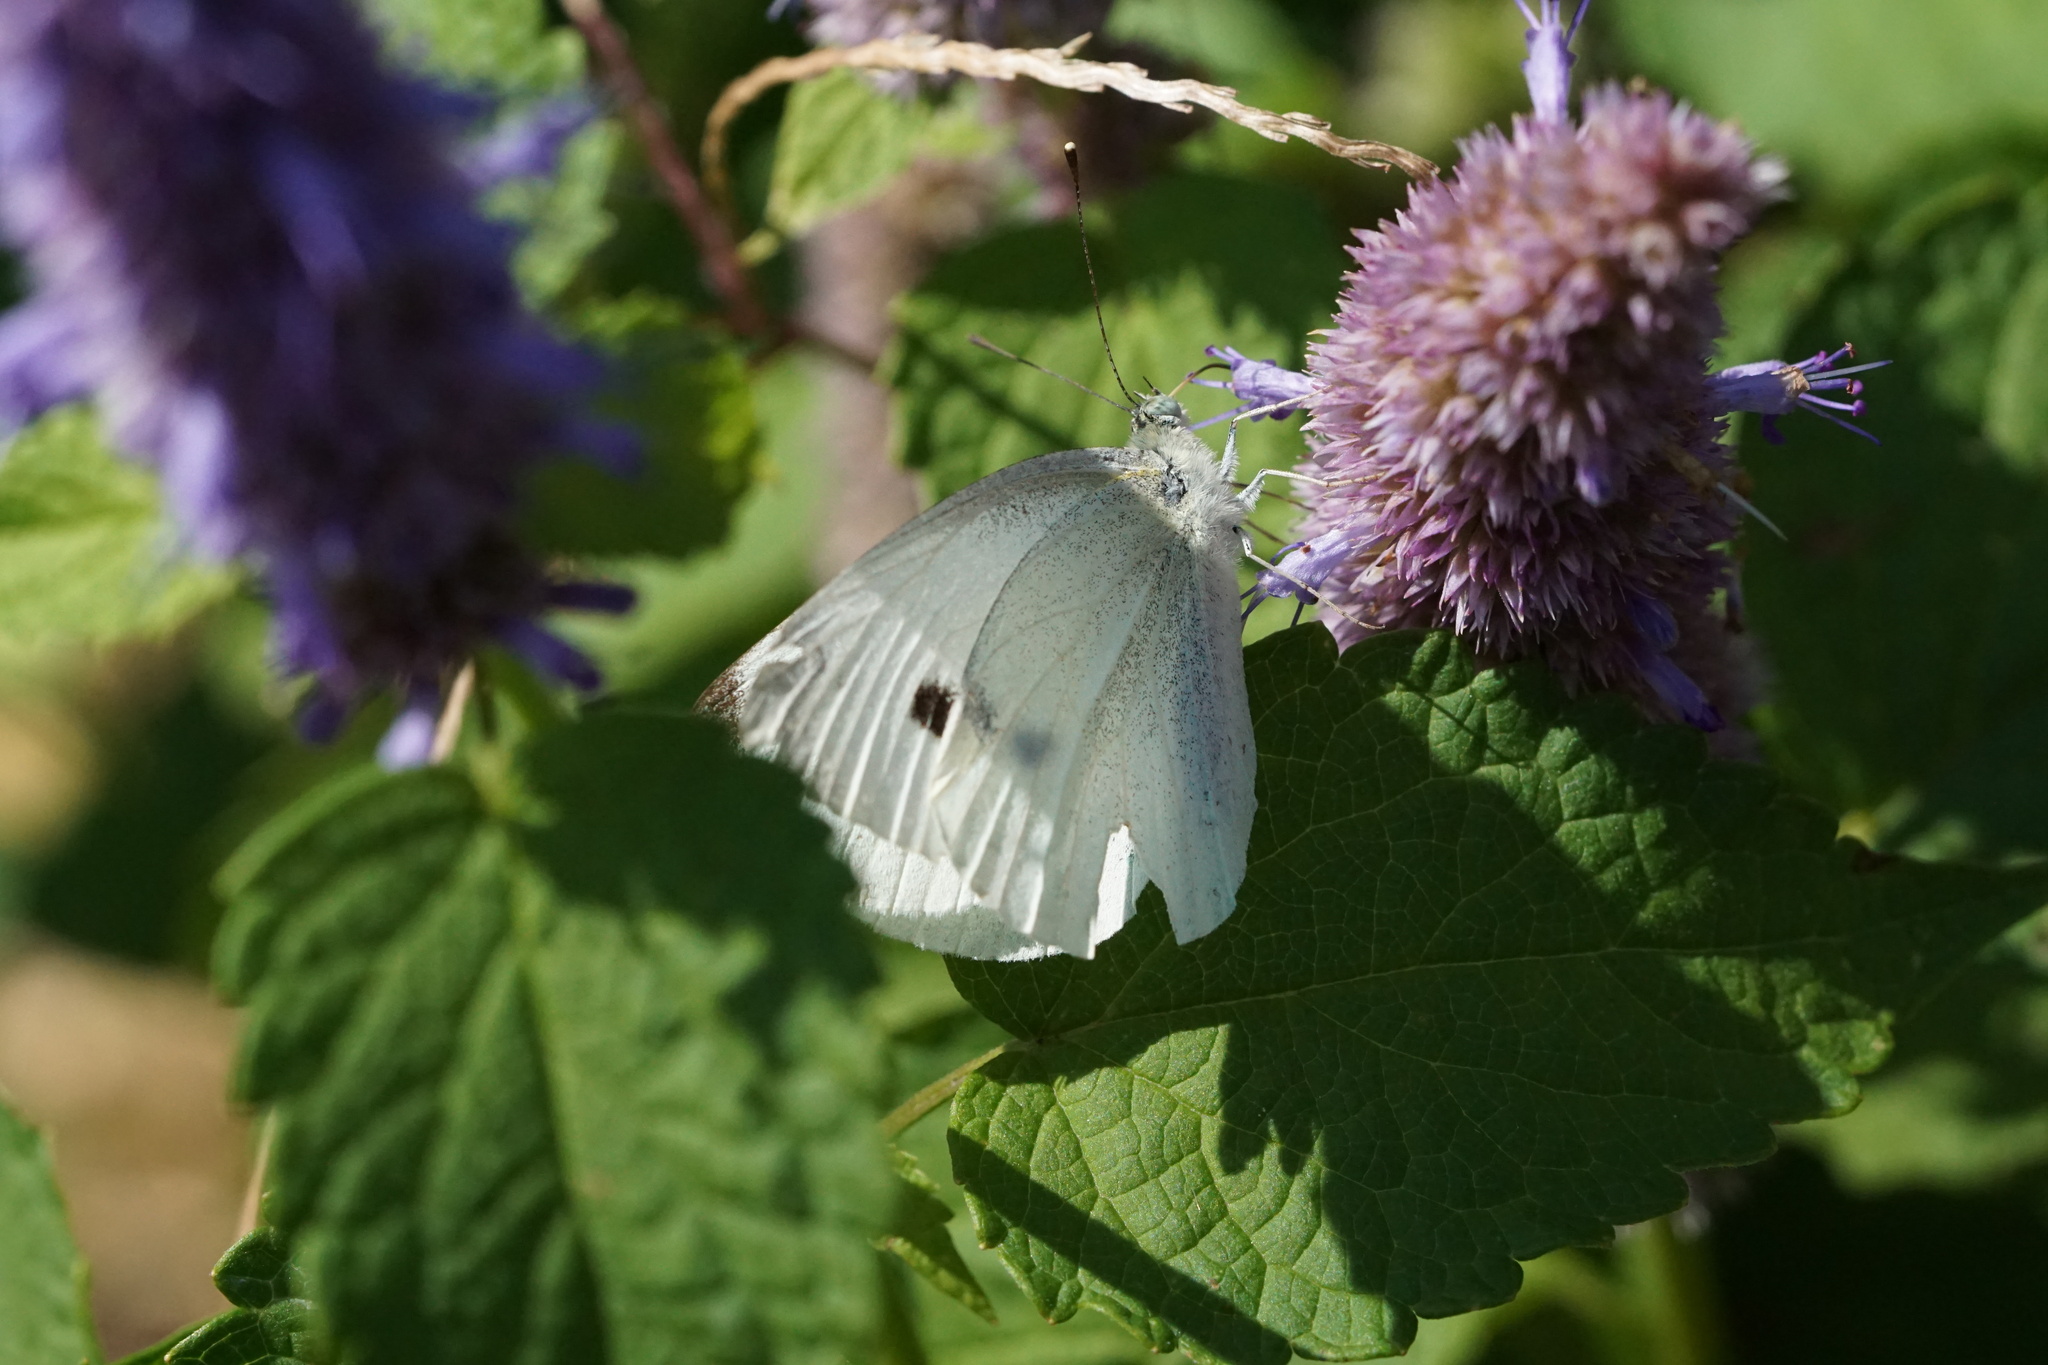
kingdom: Animalia
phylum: Arthropoda
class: Insecta
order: Lepidoptera
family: Pieridae
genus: Pieris
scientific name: Pieris rapae
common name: Small white
